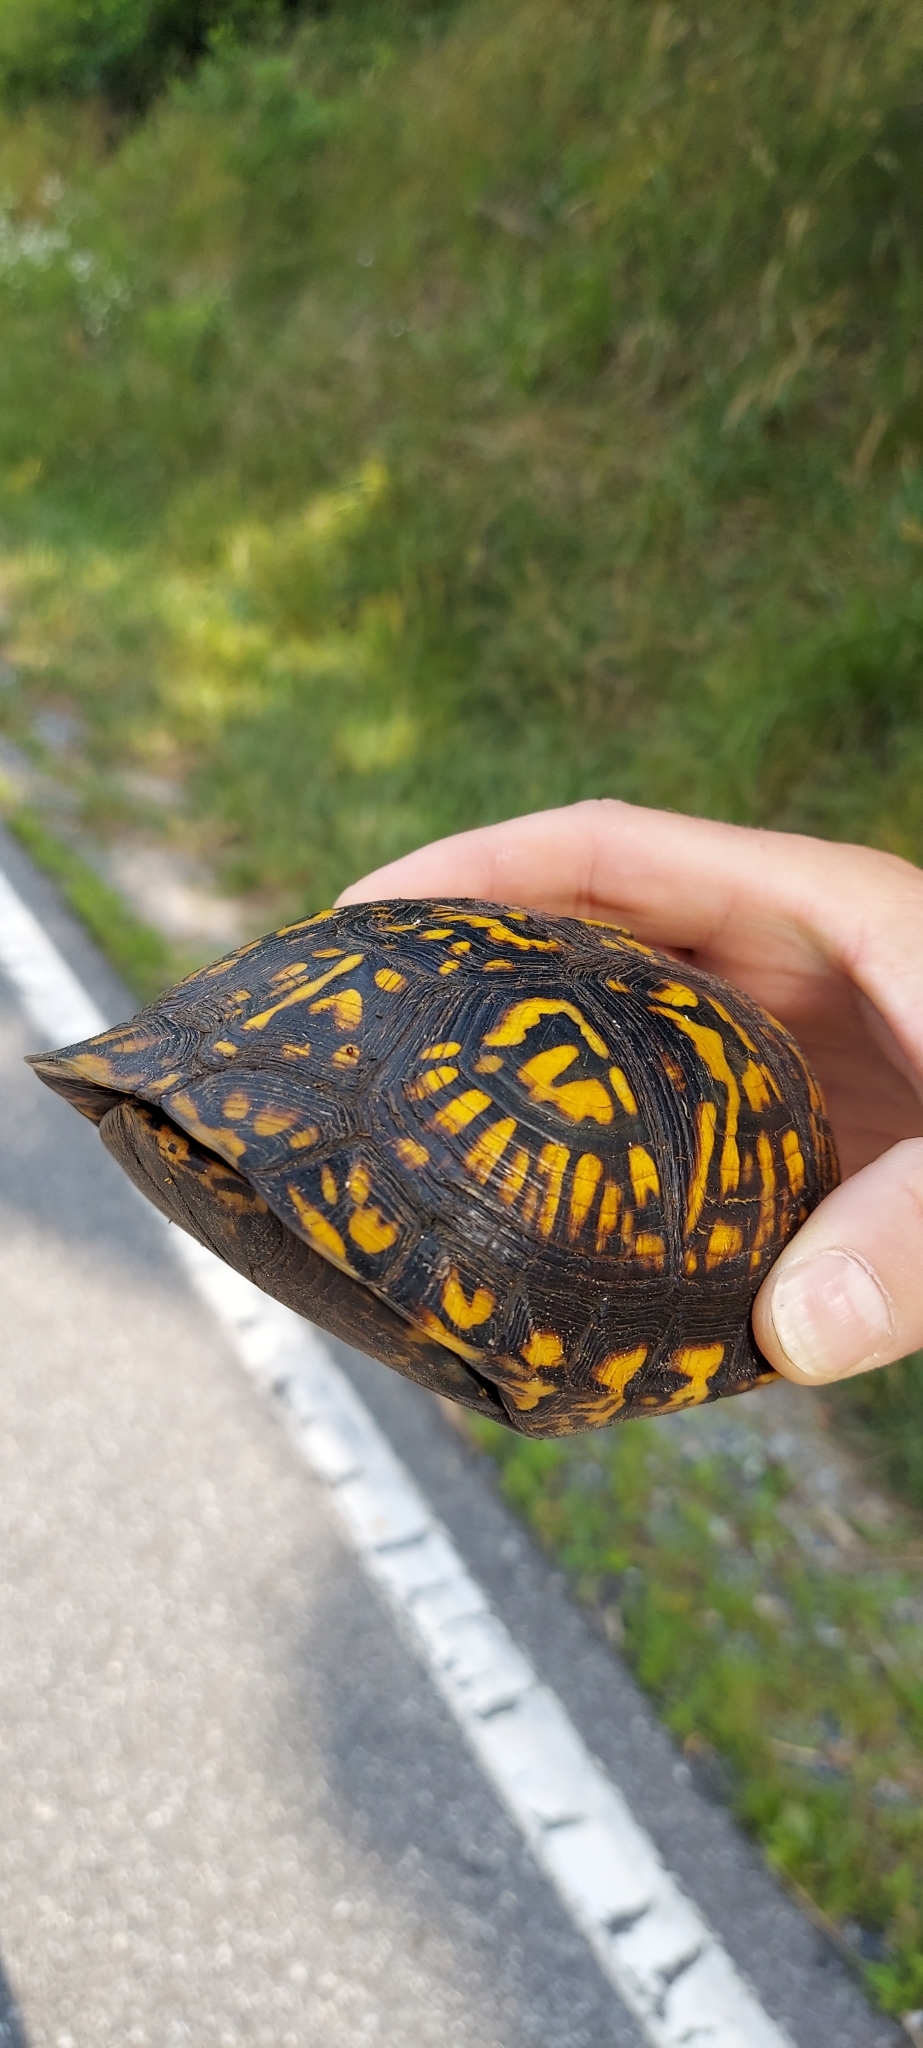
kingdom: Animalia
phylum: Chordata
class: Testudines
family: Emydidae
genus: Terrapene
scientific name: Terrapene carolina
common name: Common box turtle
